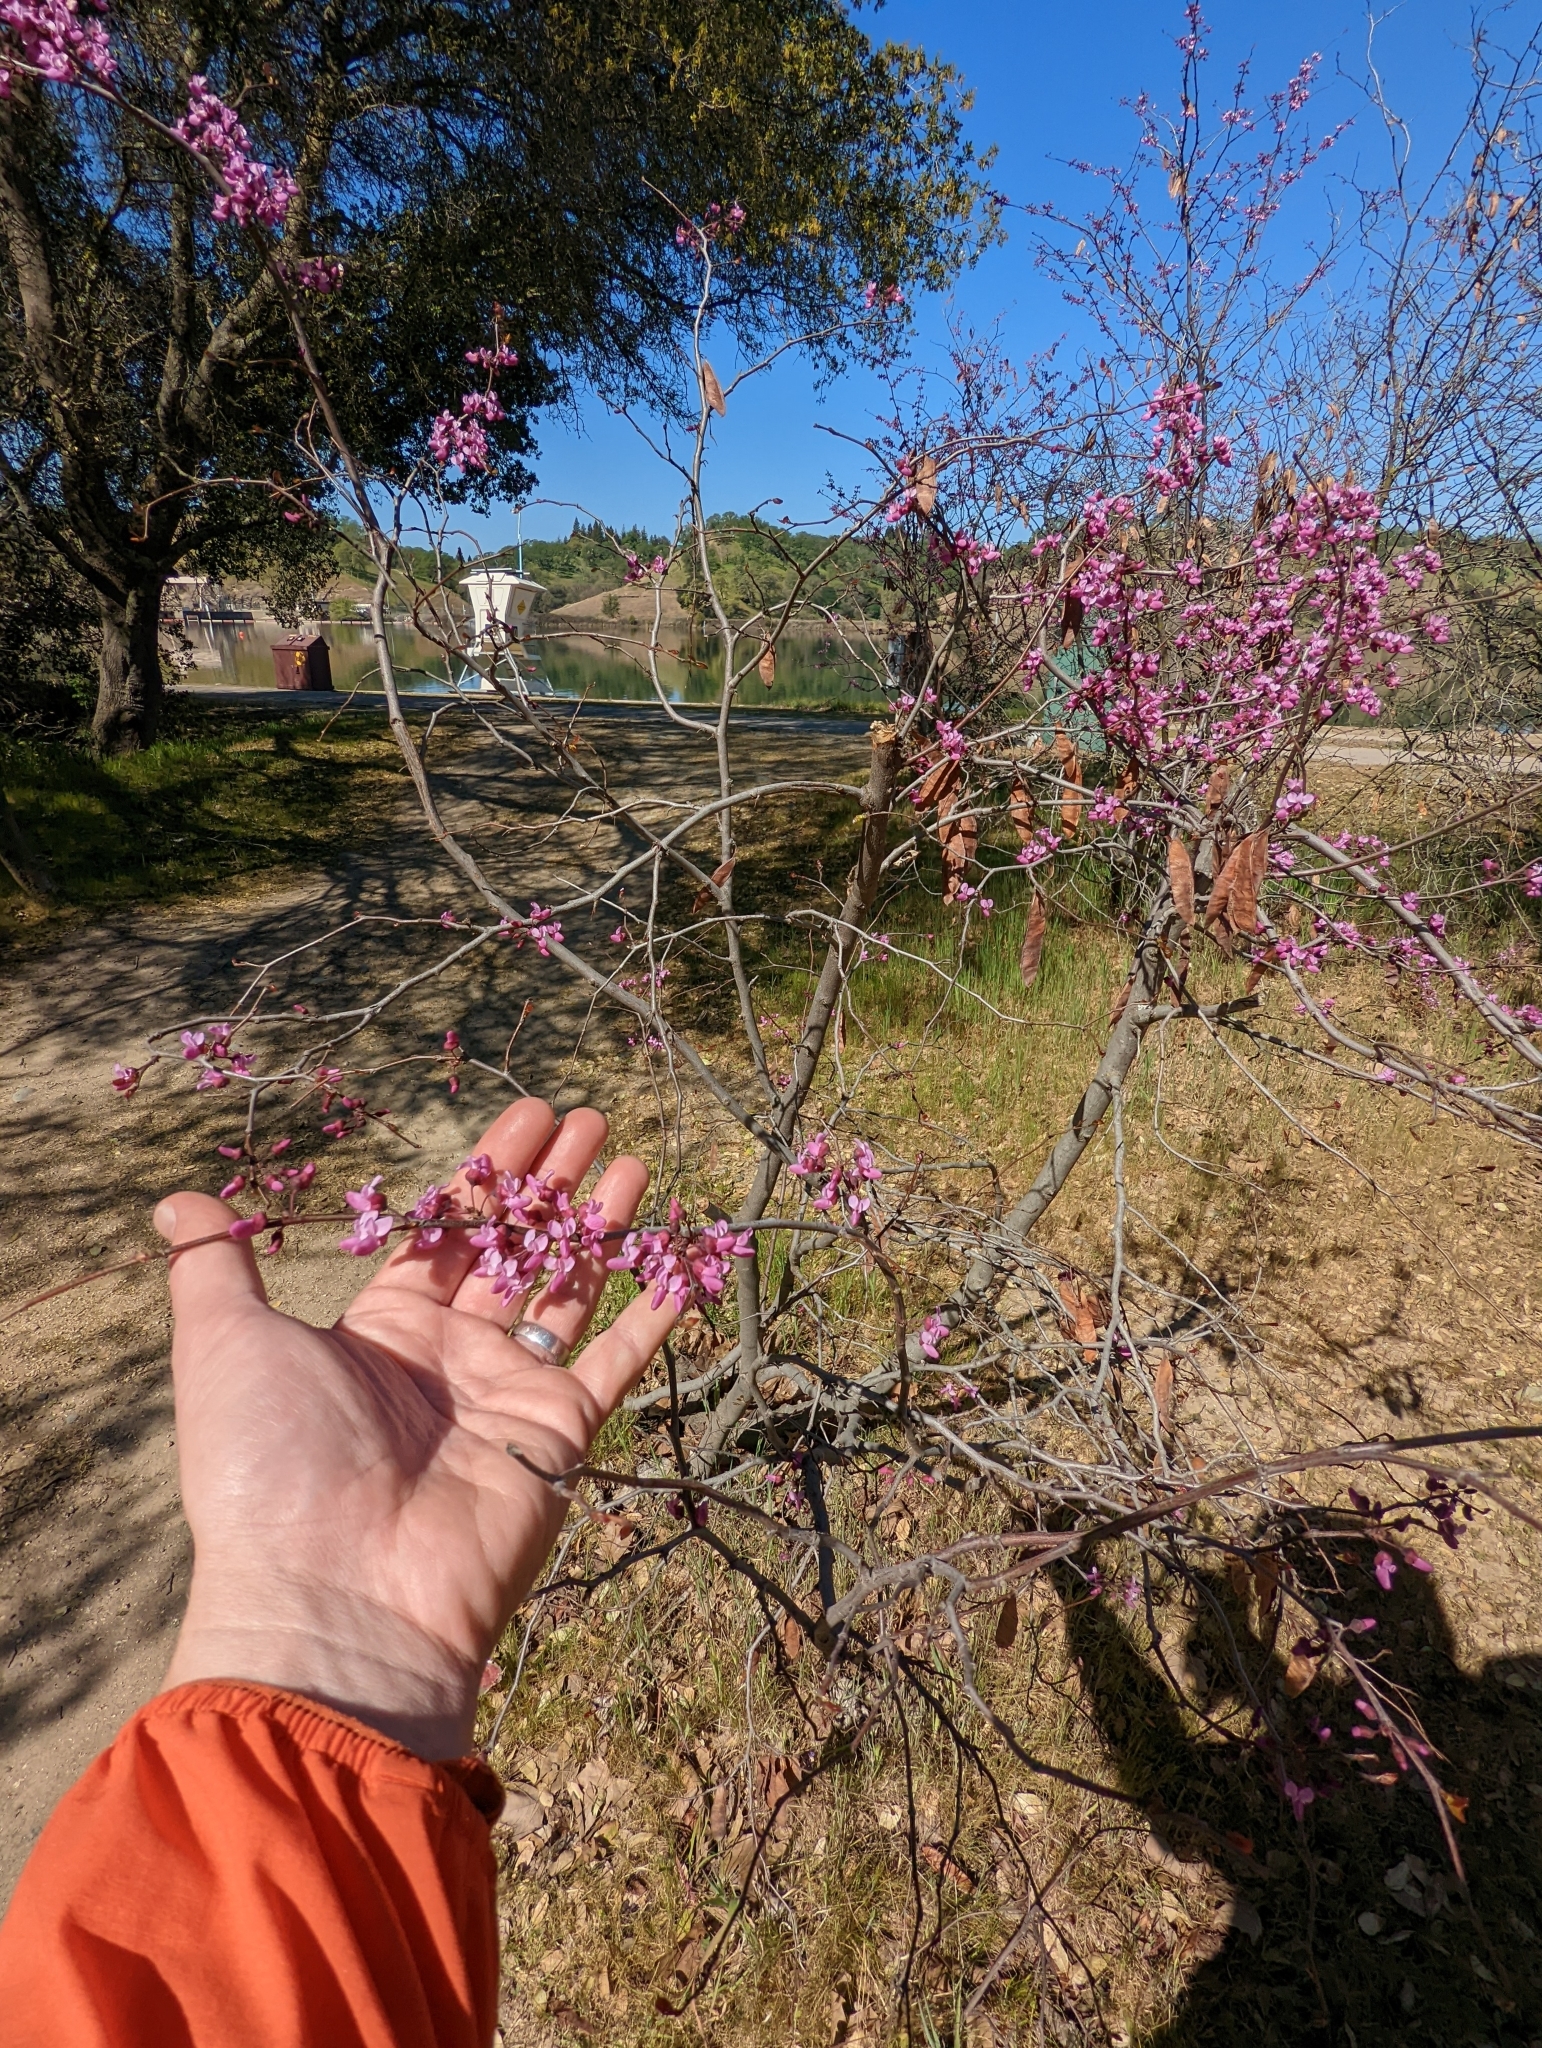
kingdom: Plantae
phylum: Tracheophyta
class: Magnoliopsida
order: Fabales
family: Fabaceae
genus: Cercis
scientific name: Cercis occidentalis
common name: California redbud
